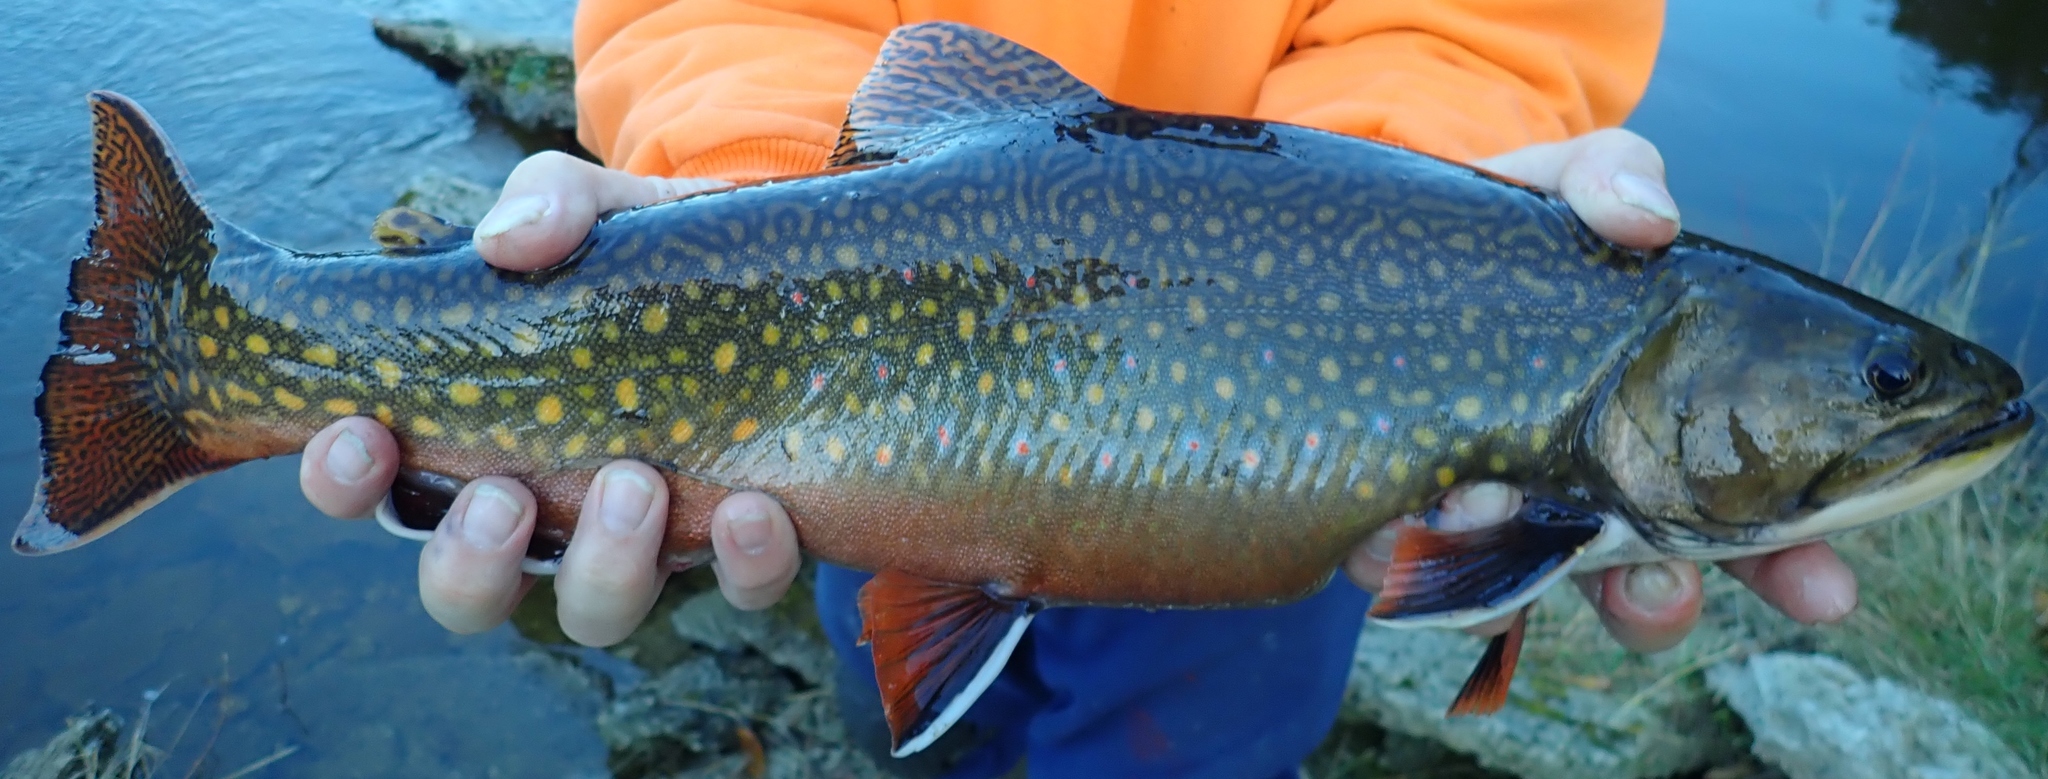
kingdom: Animalia
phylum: Chordata
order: Salmoniformes
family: Salmonidae
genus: Salvelinus
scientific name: Salvelinus fontinalis
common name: Brook trout
